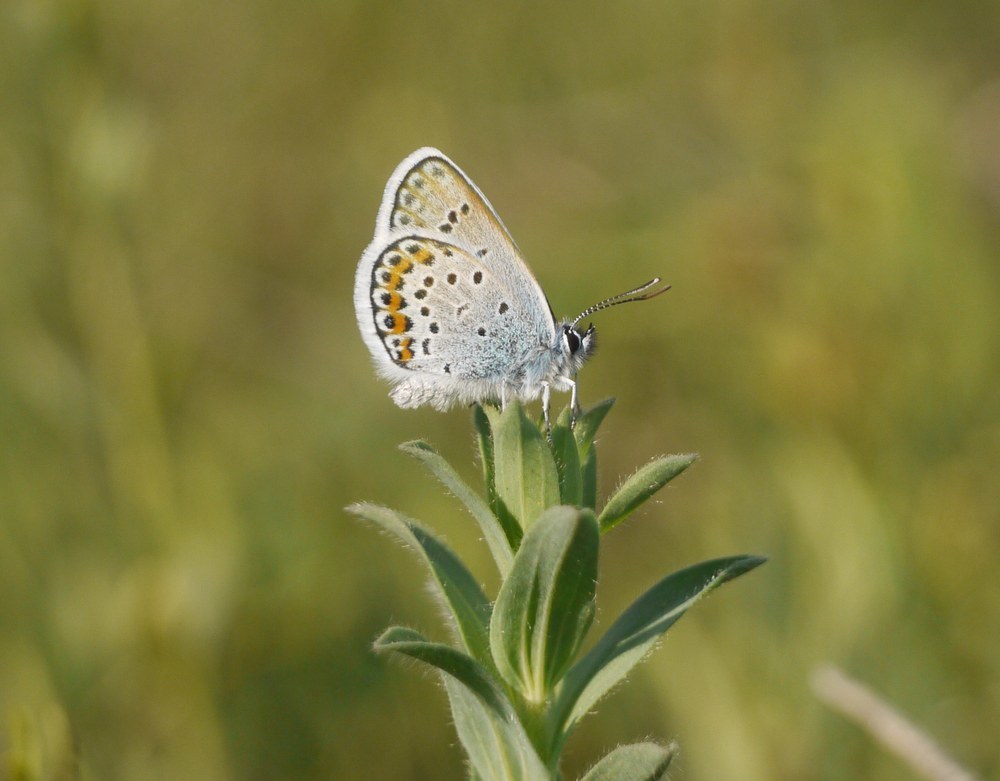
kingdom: Animalia
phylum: Arthropoda
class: Insecta
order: Lepidoptera
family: Lycaenidae
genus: Plebejus
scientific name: Plebejus argus
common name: Silver-studded blue
